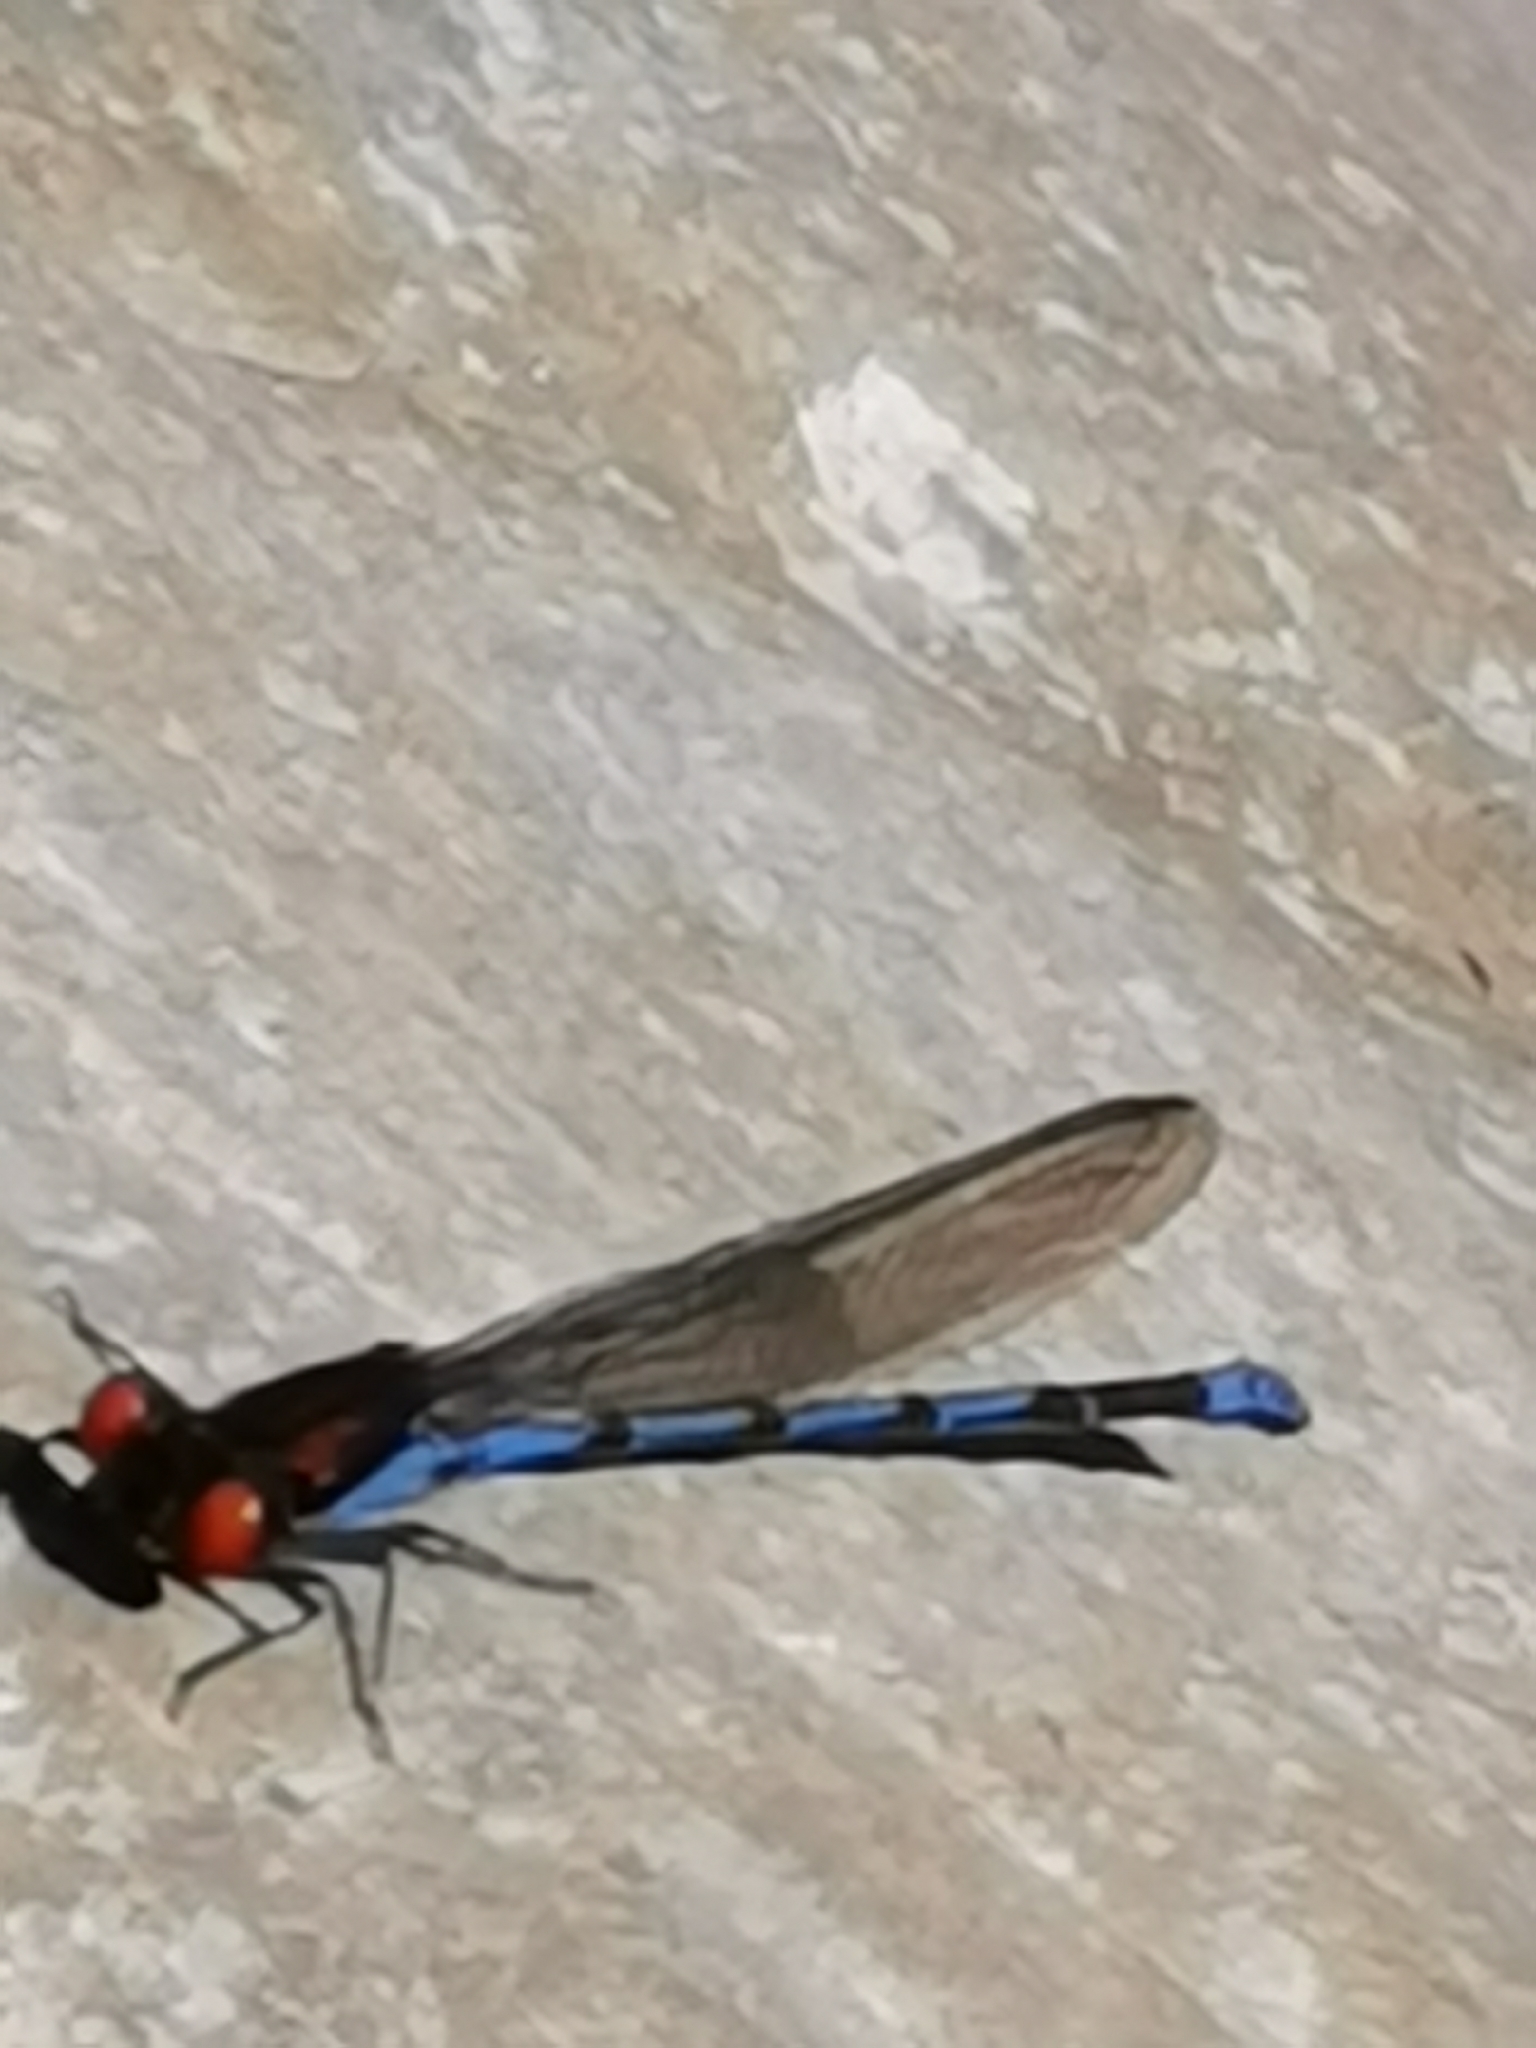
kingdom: Animalia
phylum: Arthropoda
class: Insecta
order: Odonata
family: Coenagrionidae
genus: Argia
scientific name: Argia oenea
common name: Fiery-eyed dancer
